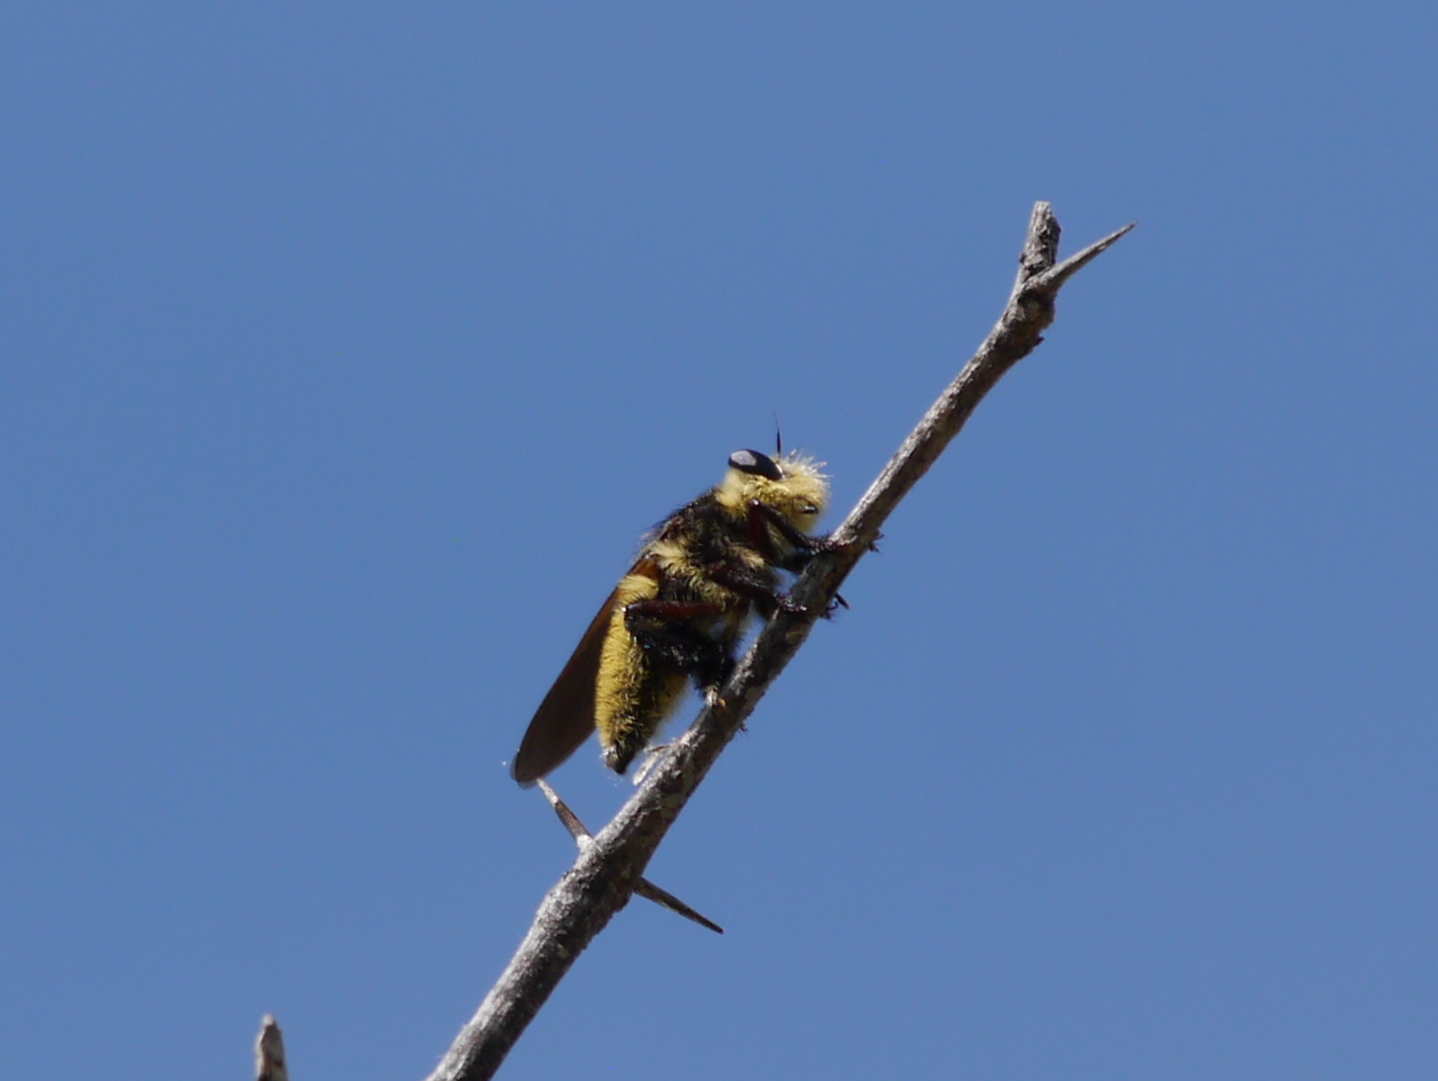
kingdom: Animalia
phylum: Arthropoda
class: Insecta
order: Diptera
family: Asilidae
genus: Mallophora
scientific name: Mallophora fautrix
